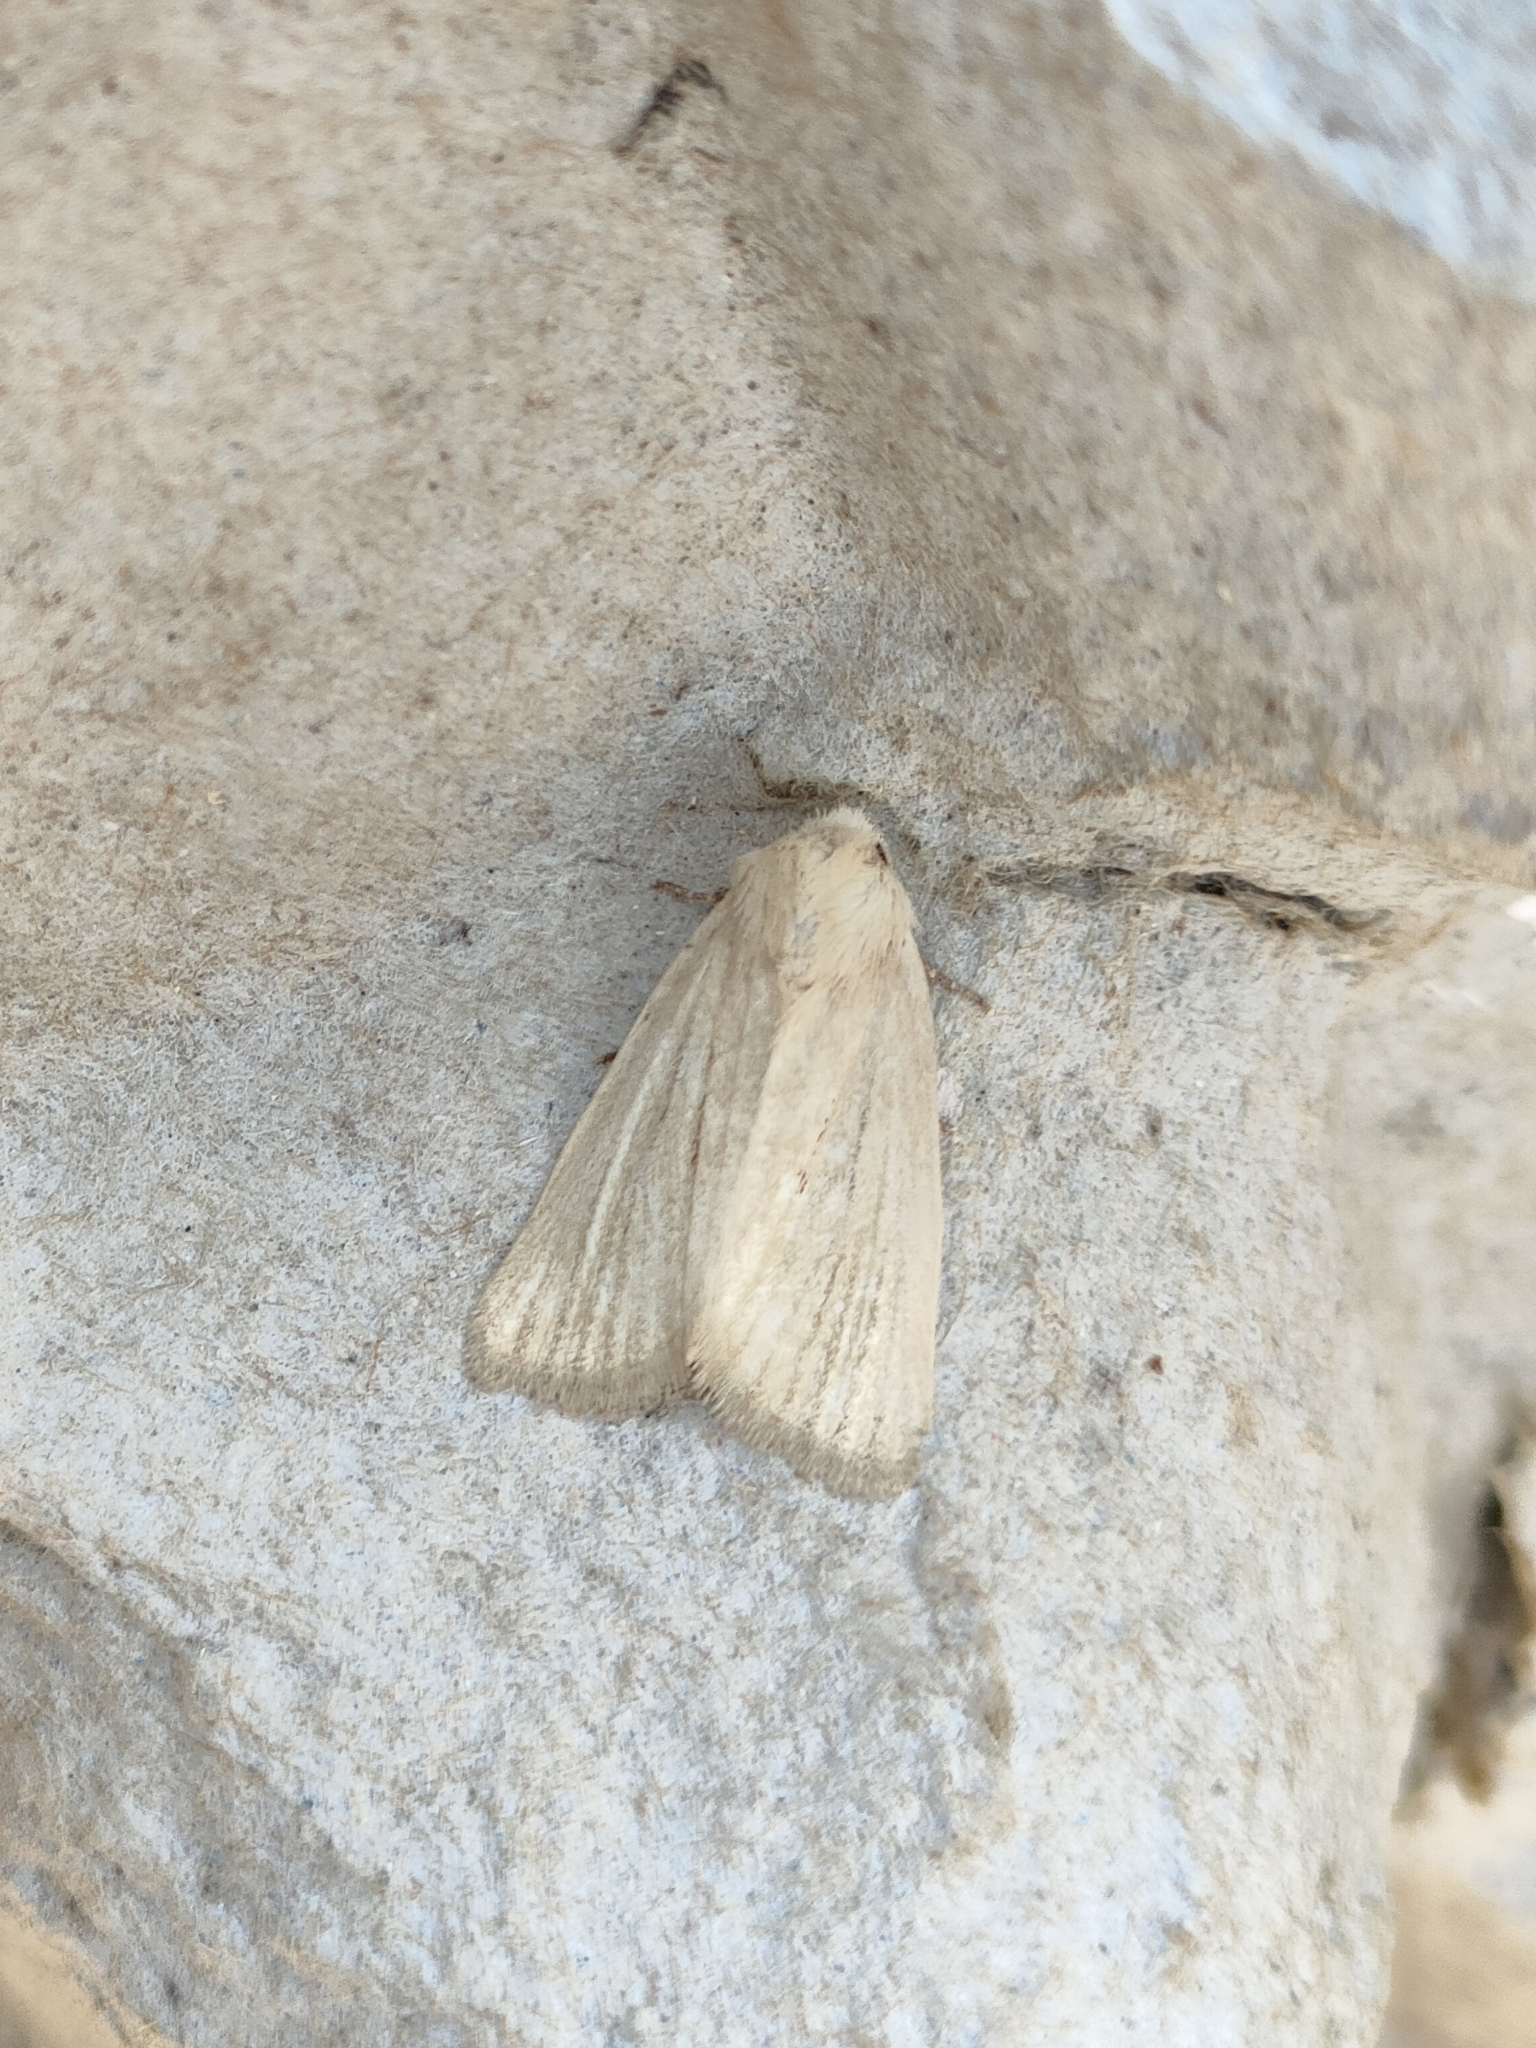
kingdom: Animalia
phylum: Arthropoda
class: Insecta
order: Lepidoptera
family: Noctuidae
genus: Photedes
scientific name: Photedes dulcis
